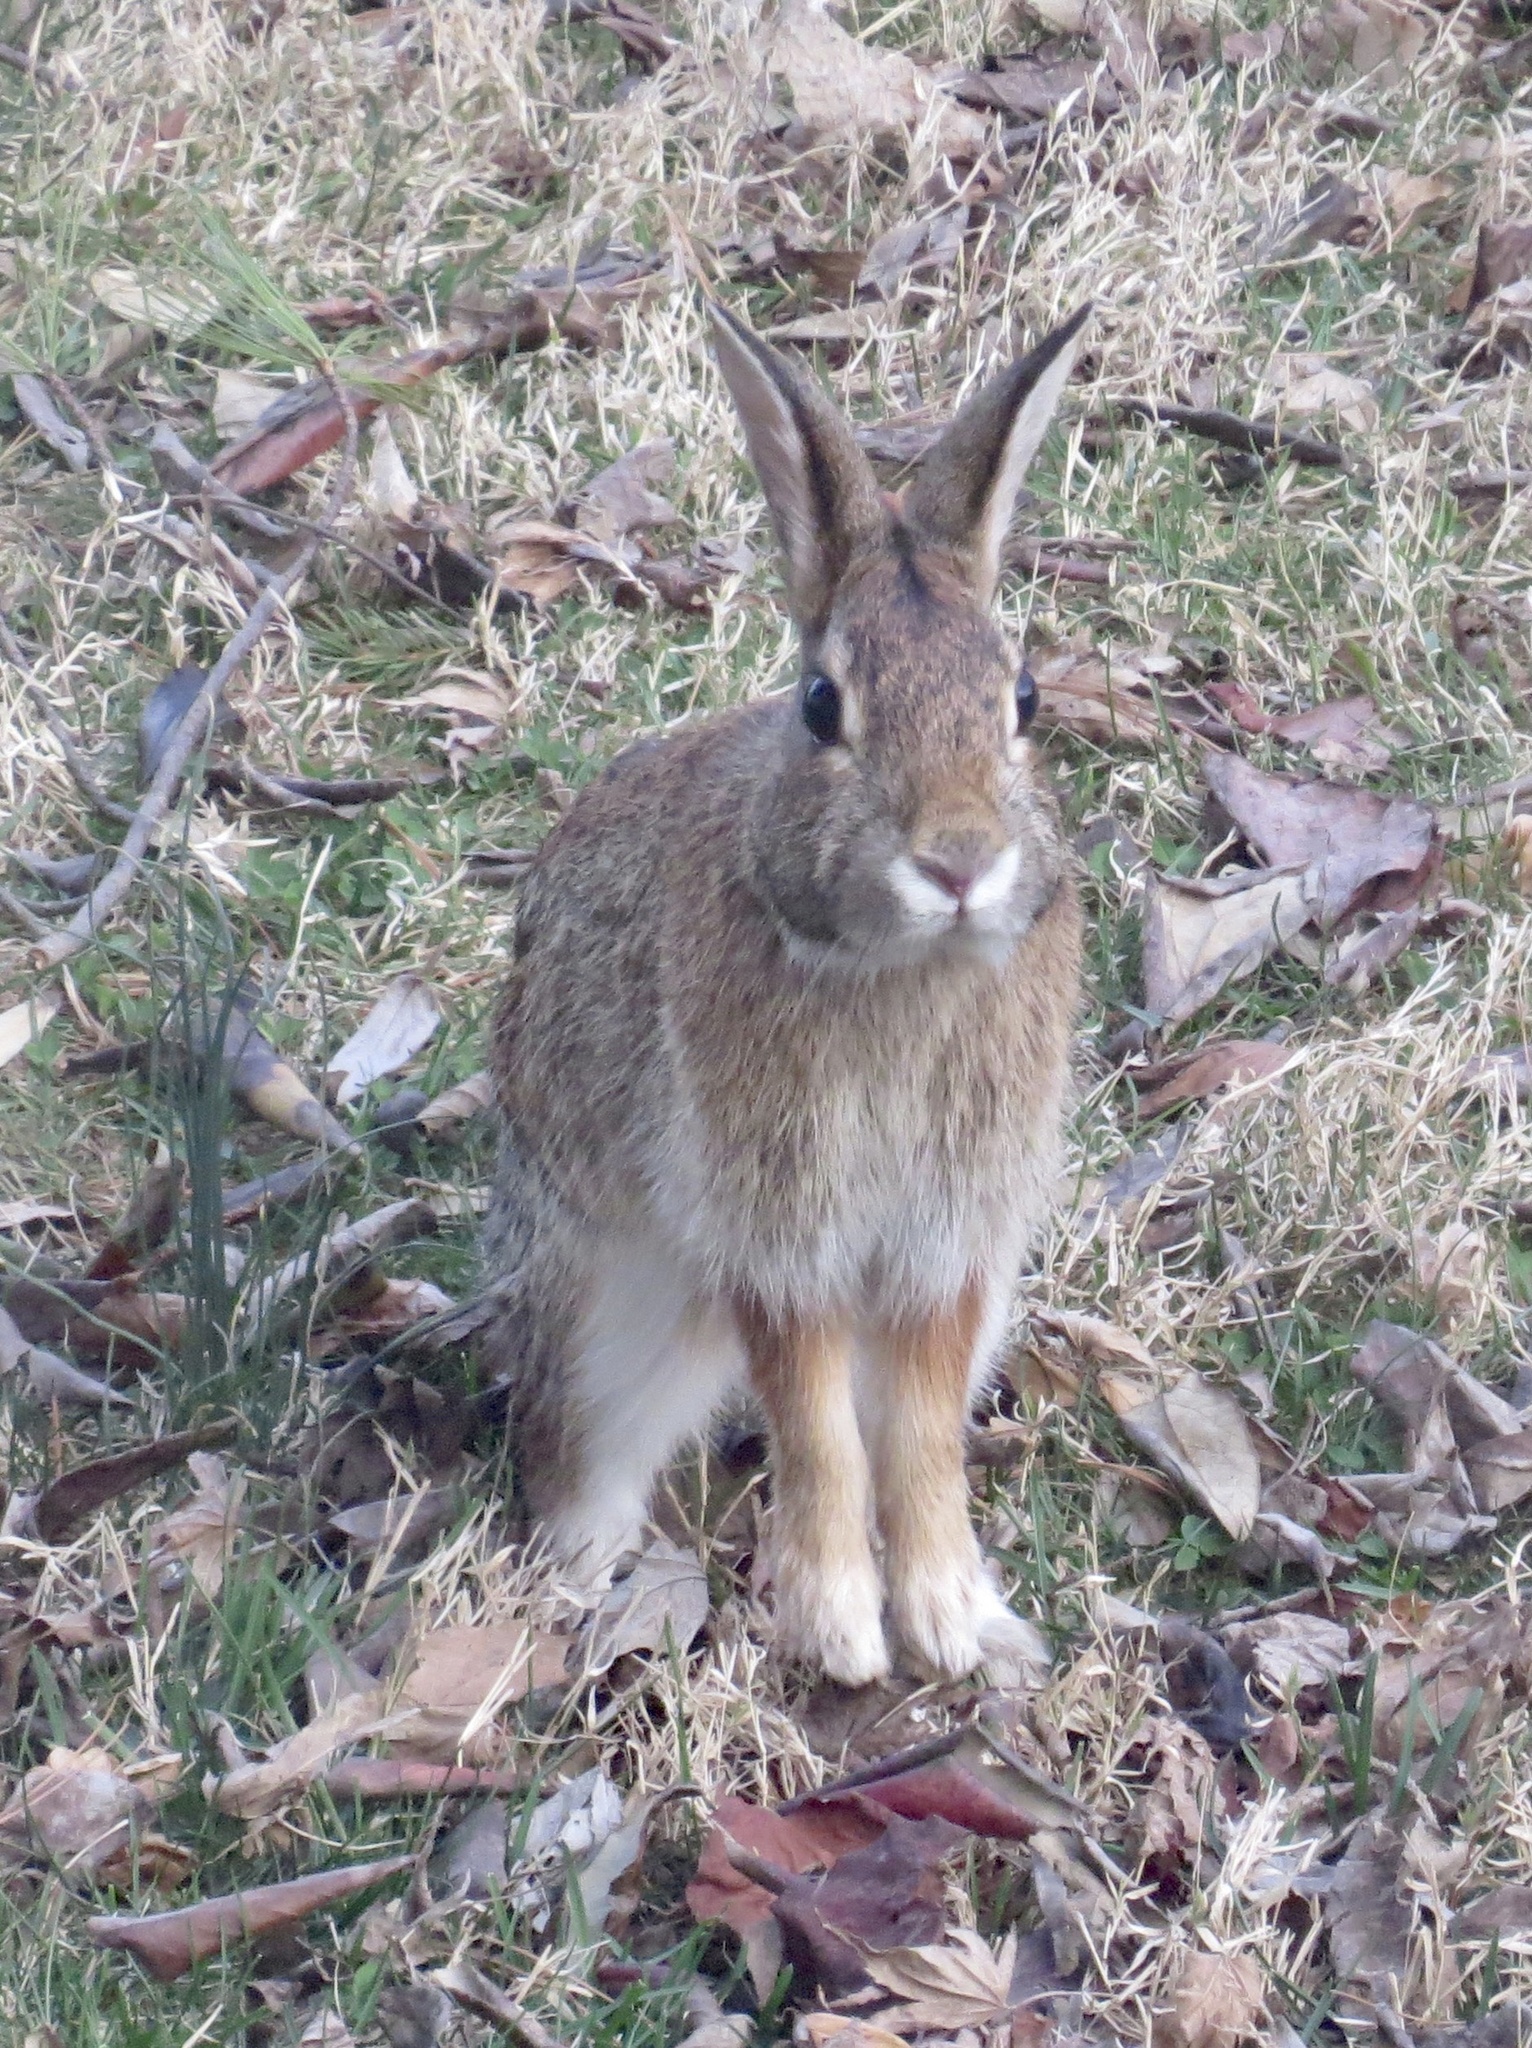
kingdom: Animalia
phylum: Chordata
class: Mammalia
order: Lagomorpha
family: Leporidae
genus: Sylvilagus
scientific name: Sylvilagus floridanus
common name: Eastern cottontail
